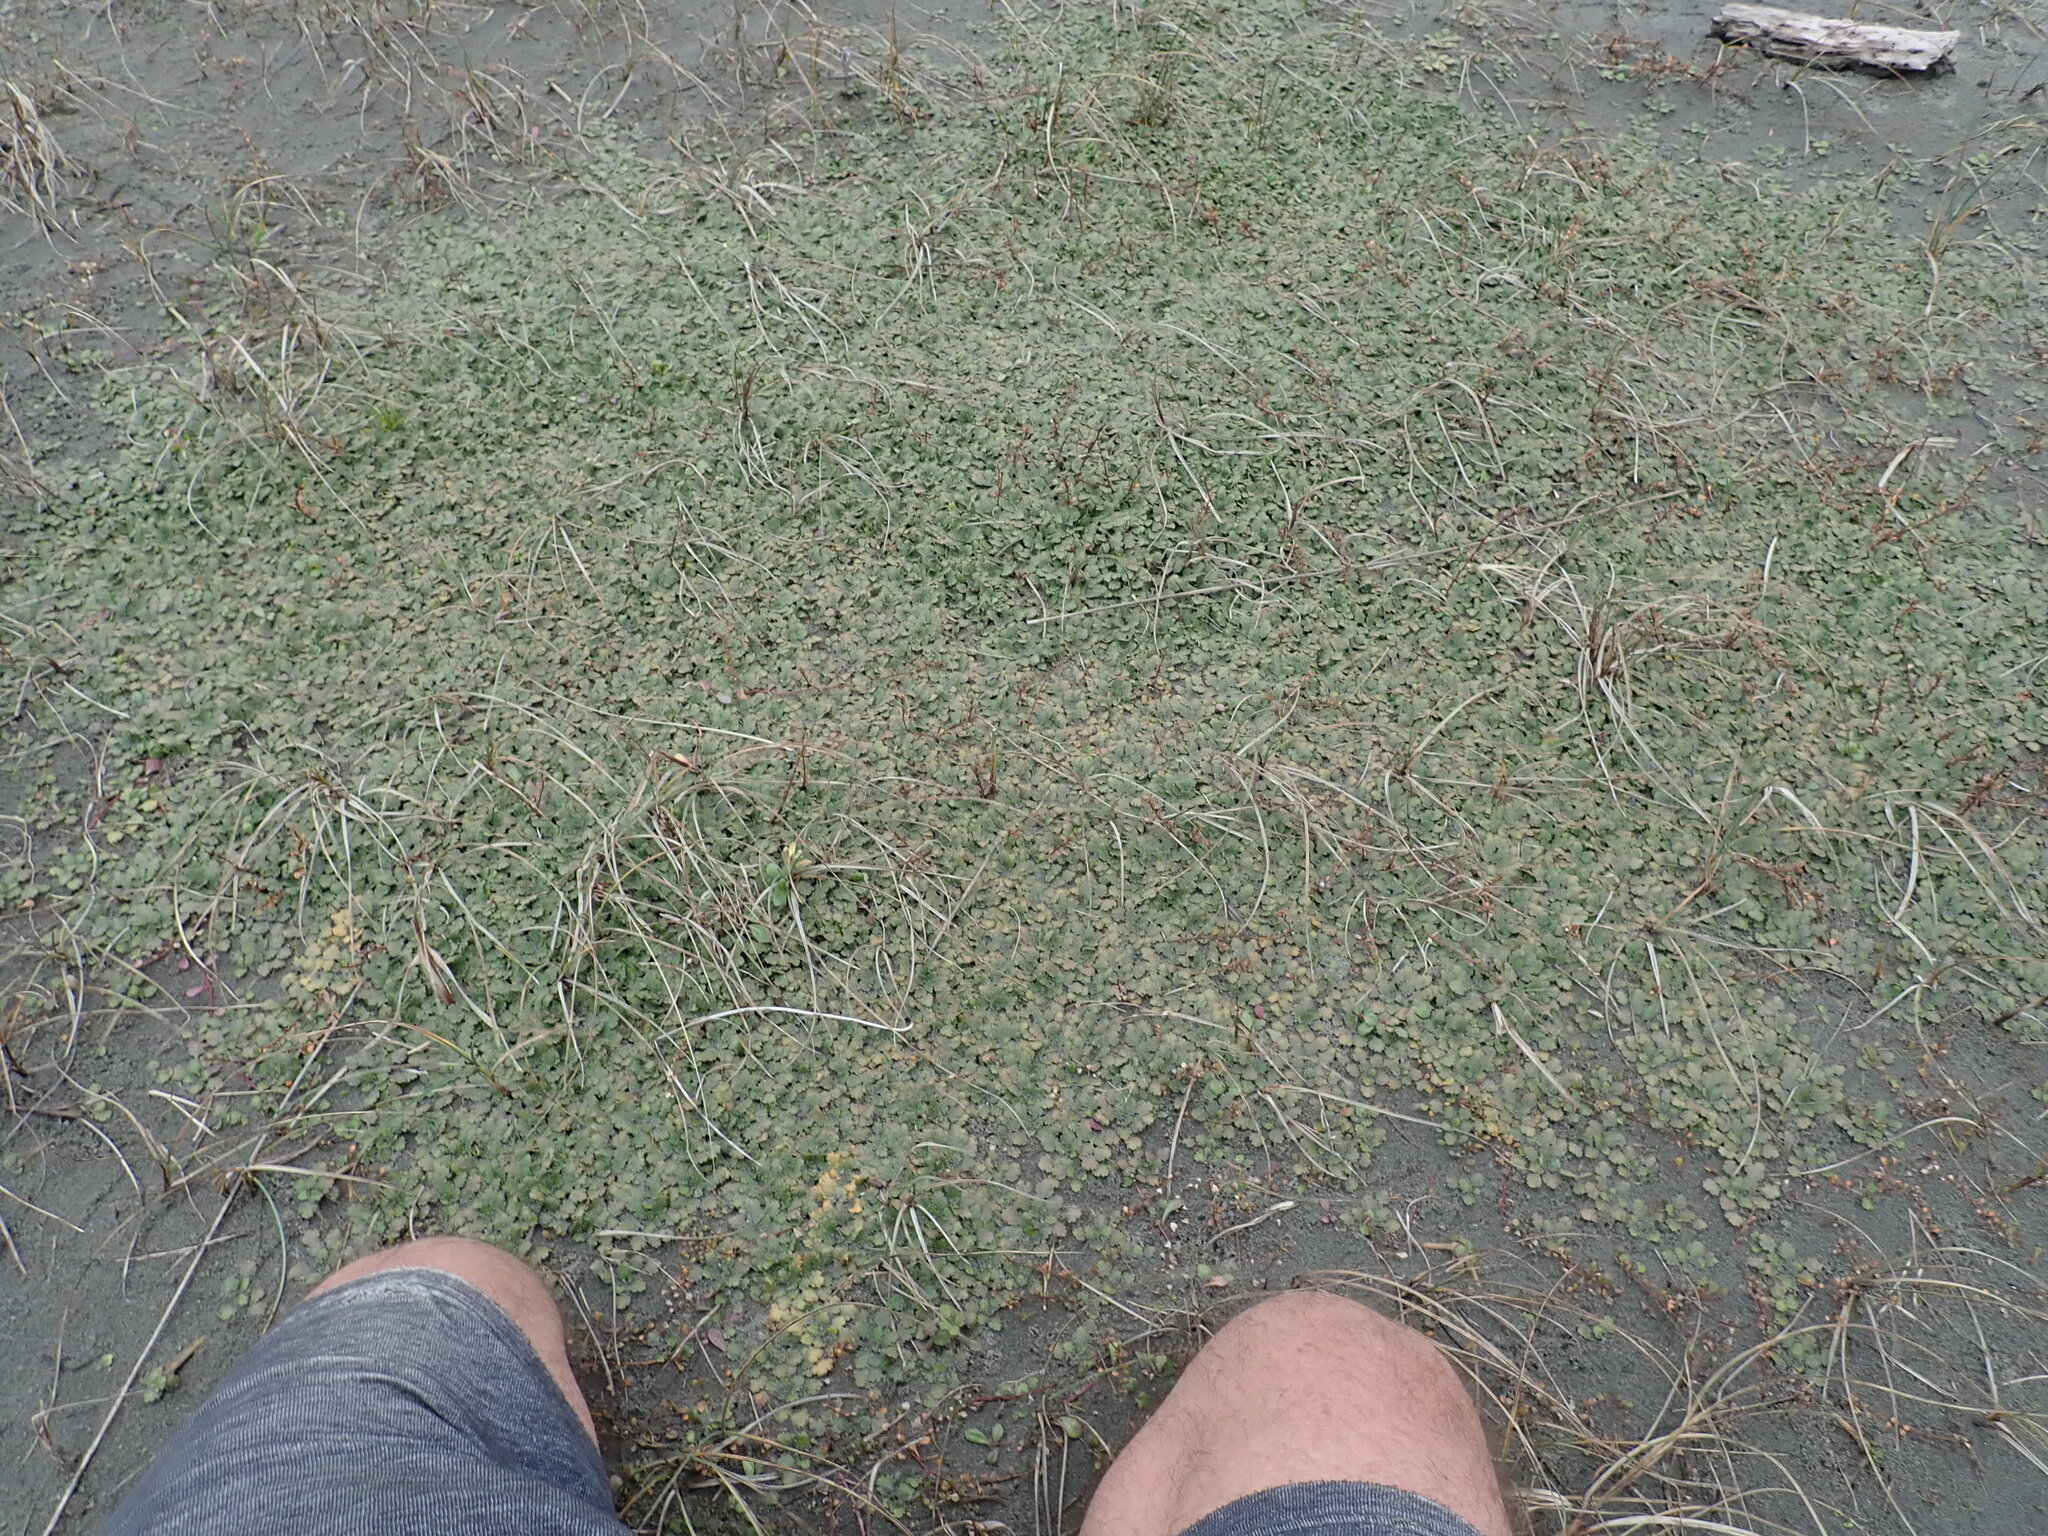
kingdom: Plantae
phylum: Tracheophyta
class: Magnoliopsida
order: Gunnerales
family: Gunneraceae
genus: Gunnera
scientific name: Gunnera dentata
